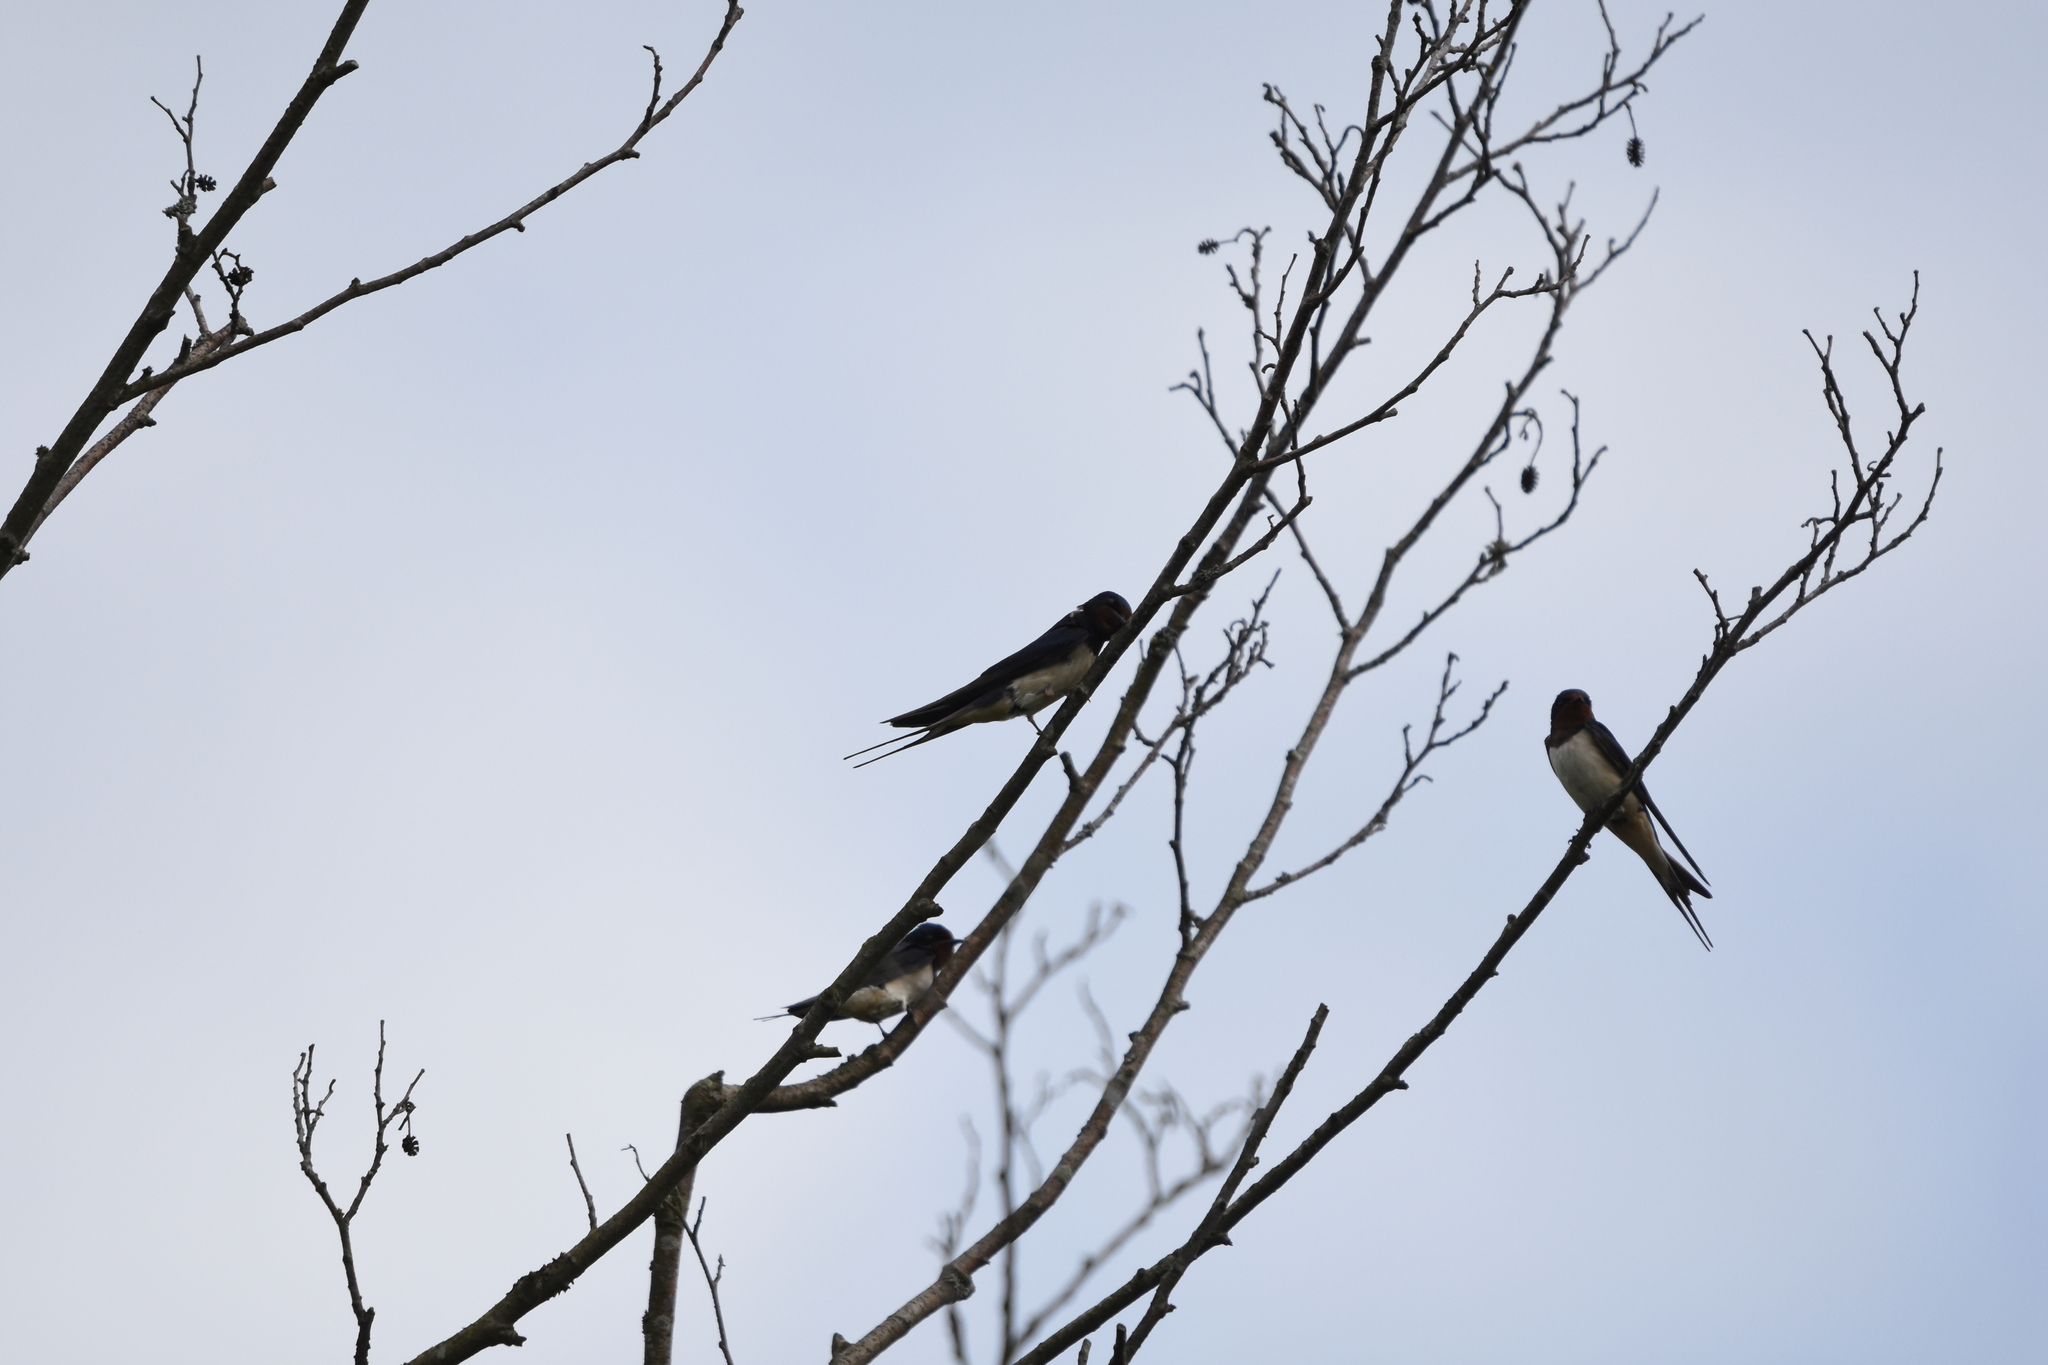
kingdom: Animalia
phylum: Chordata
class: Aves
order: Passeriformes
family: Hirundinidae
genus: Hirundo
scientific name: Hirundo rustica
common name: Barn swallow
